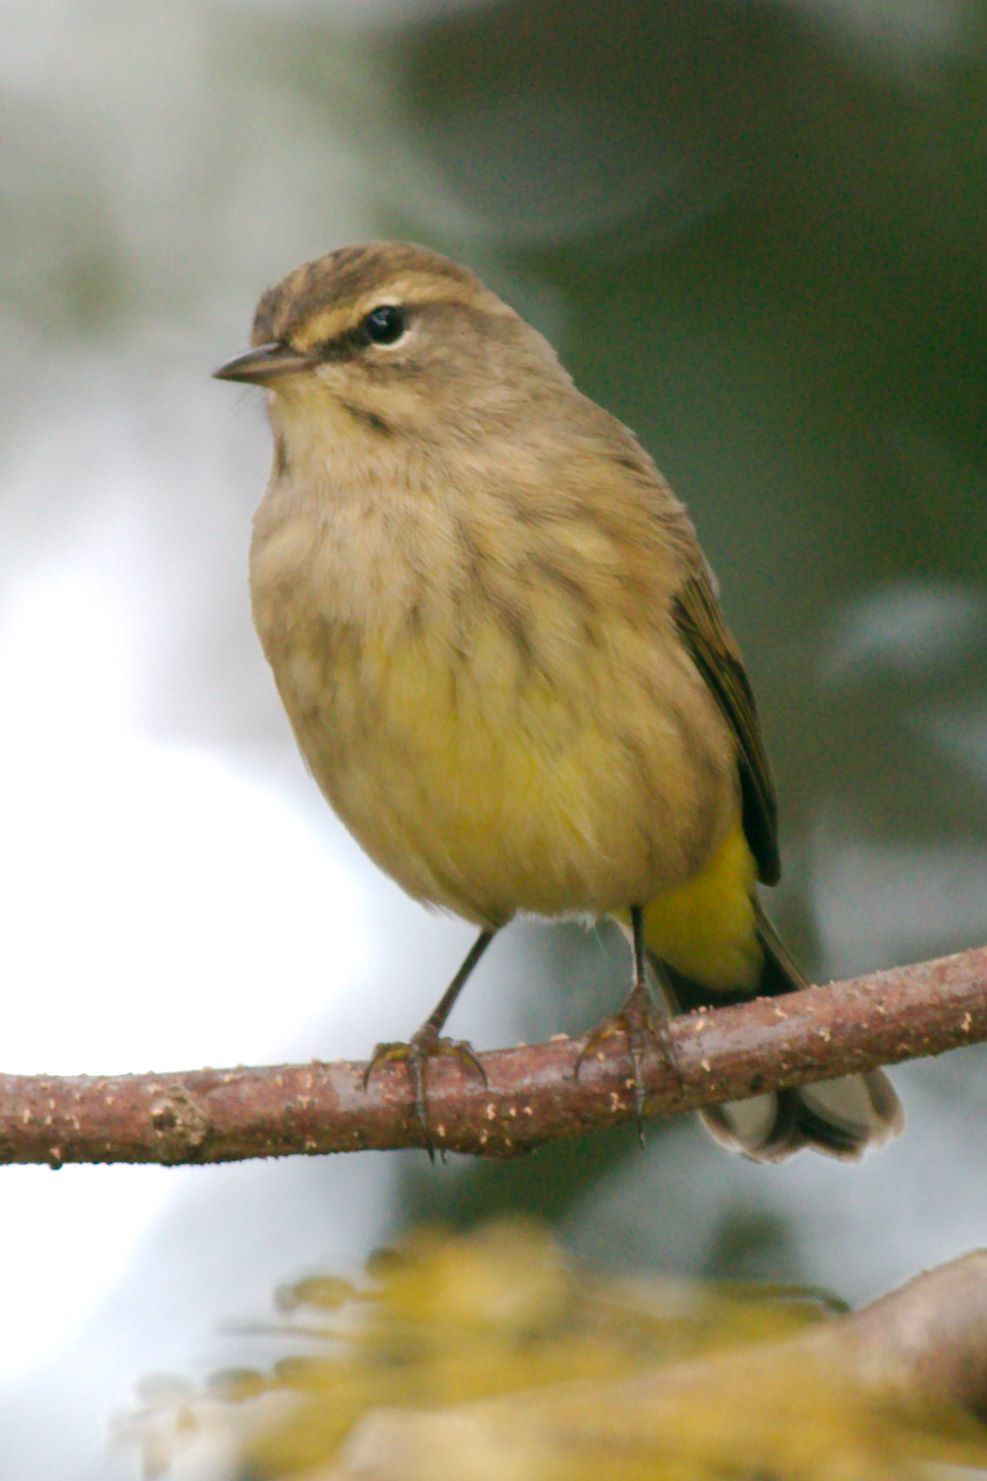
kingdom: Animalia
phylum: Chordata
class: Aves
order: Passeriformes
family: Parulidae
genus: Setophaga
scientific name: Setophaga palmarum
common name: Palm warbler
